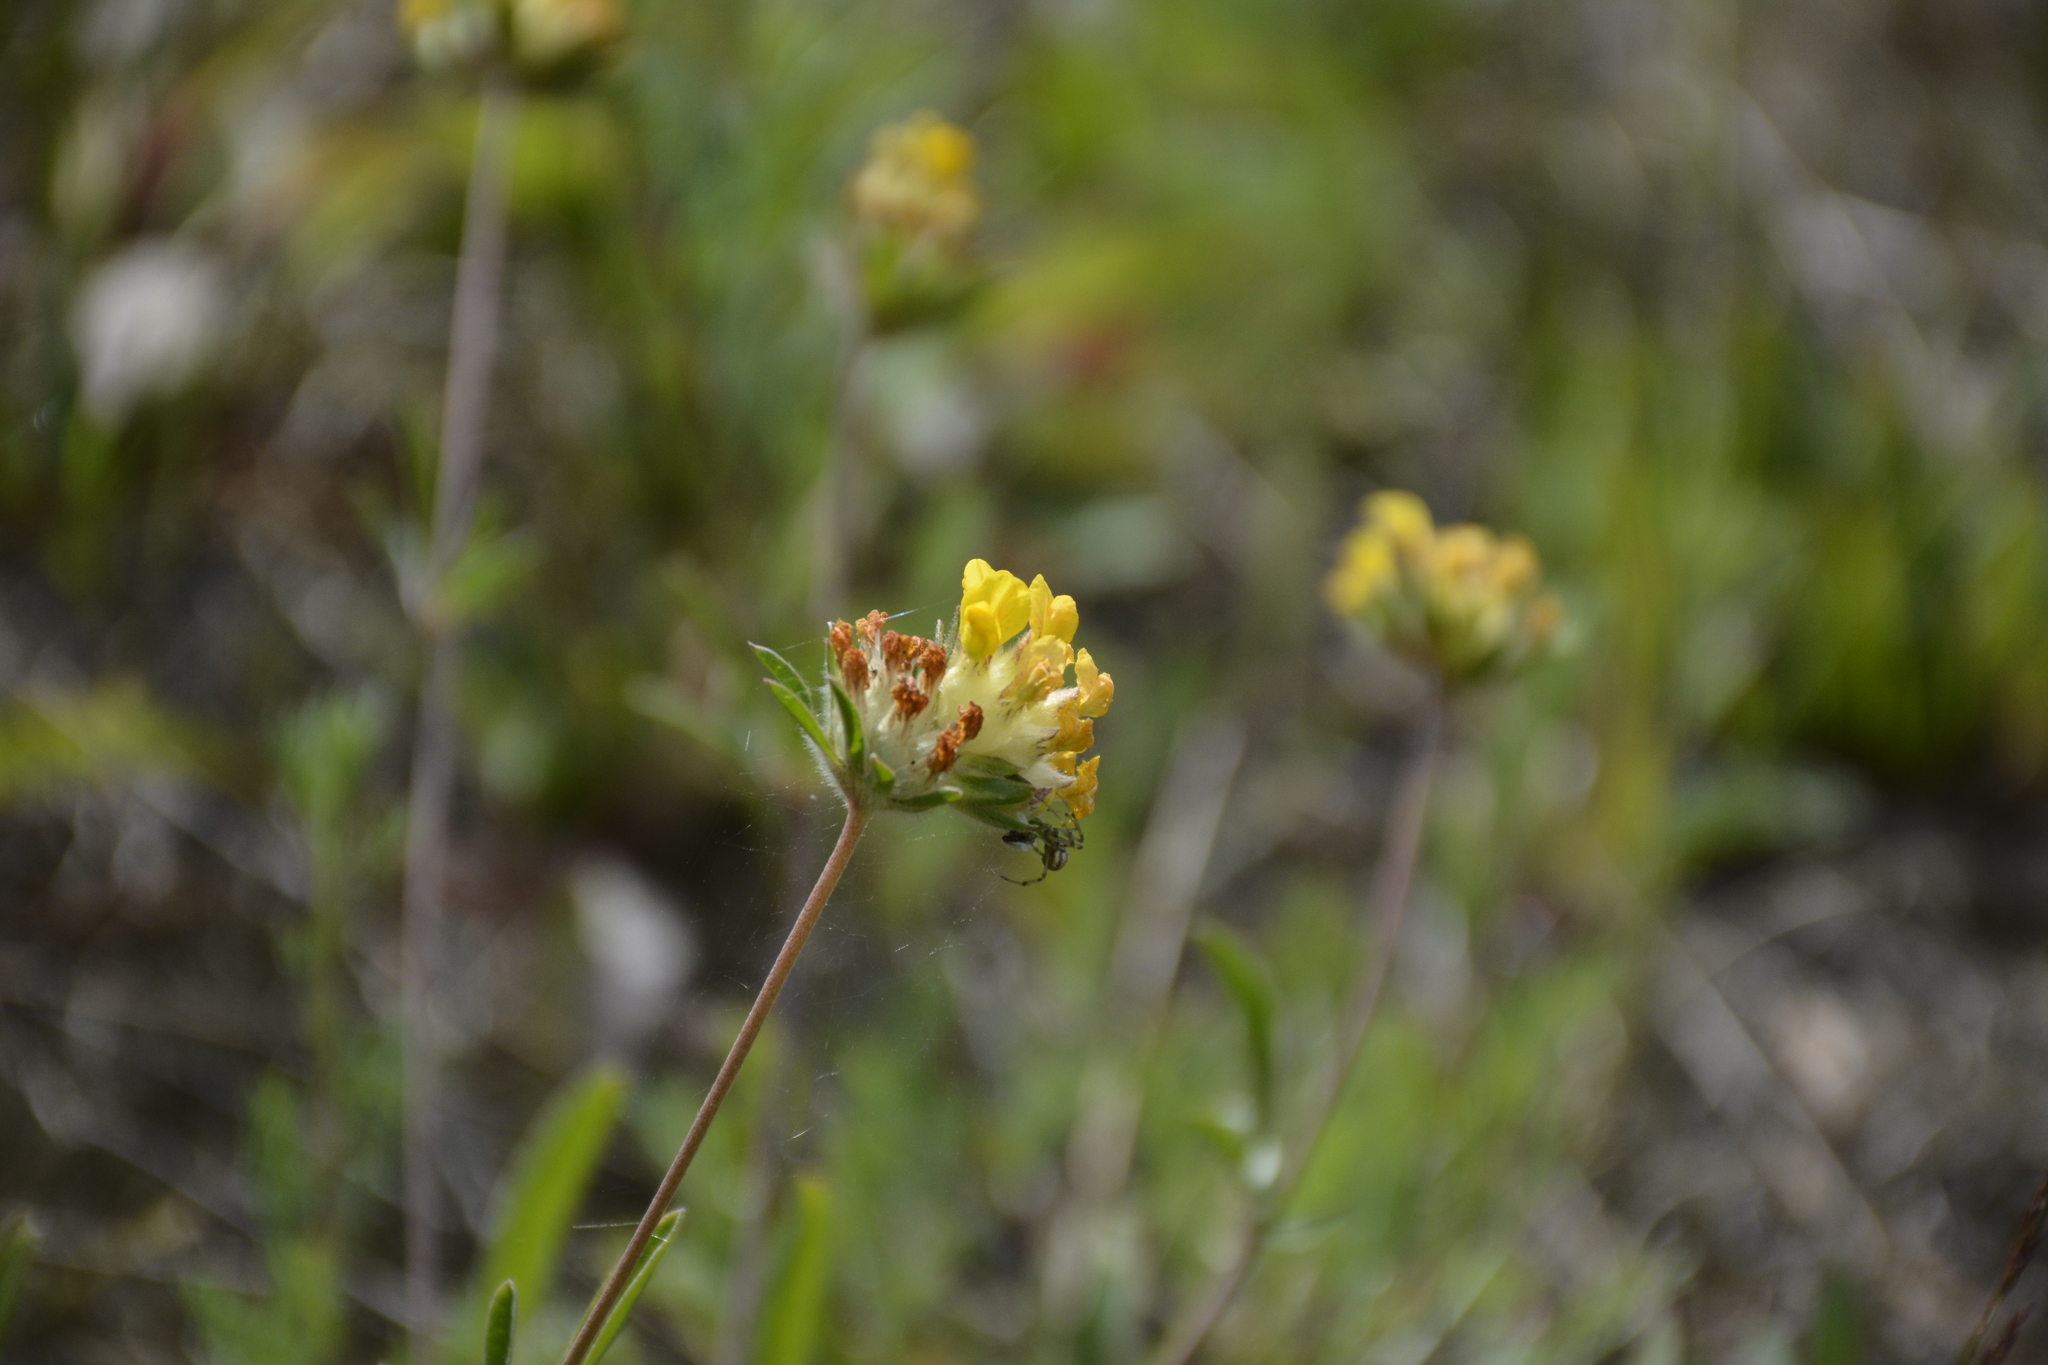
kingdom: Plantae
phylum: Tracheophyta
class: Magnoliopsida
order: Fabales
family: Fabaceae
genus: Anthyllis
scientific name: Anthyllis vulneraria
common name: Kidney vetch
